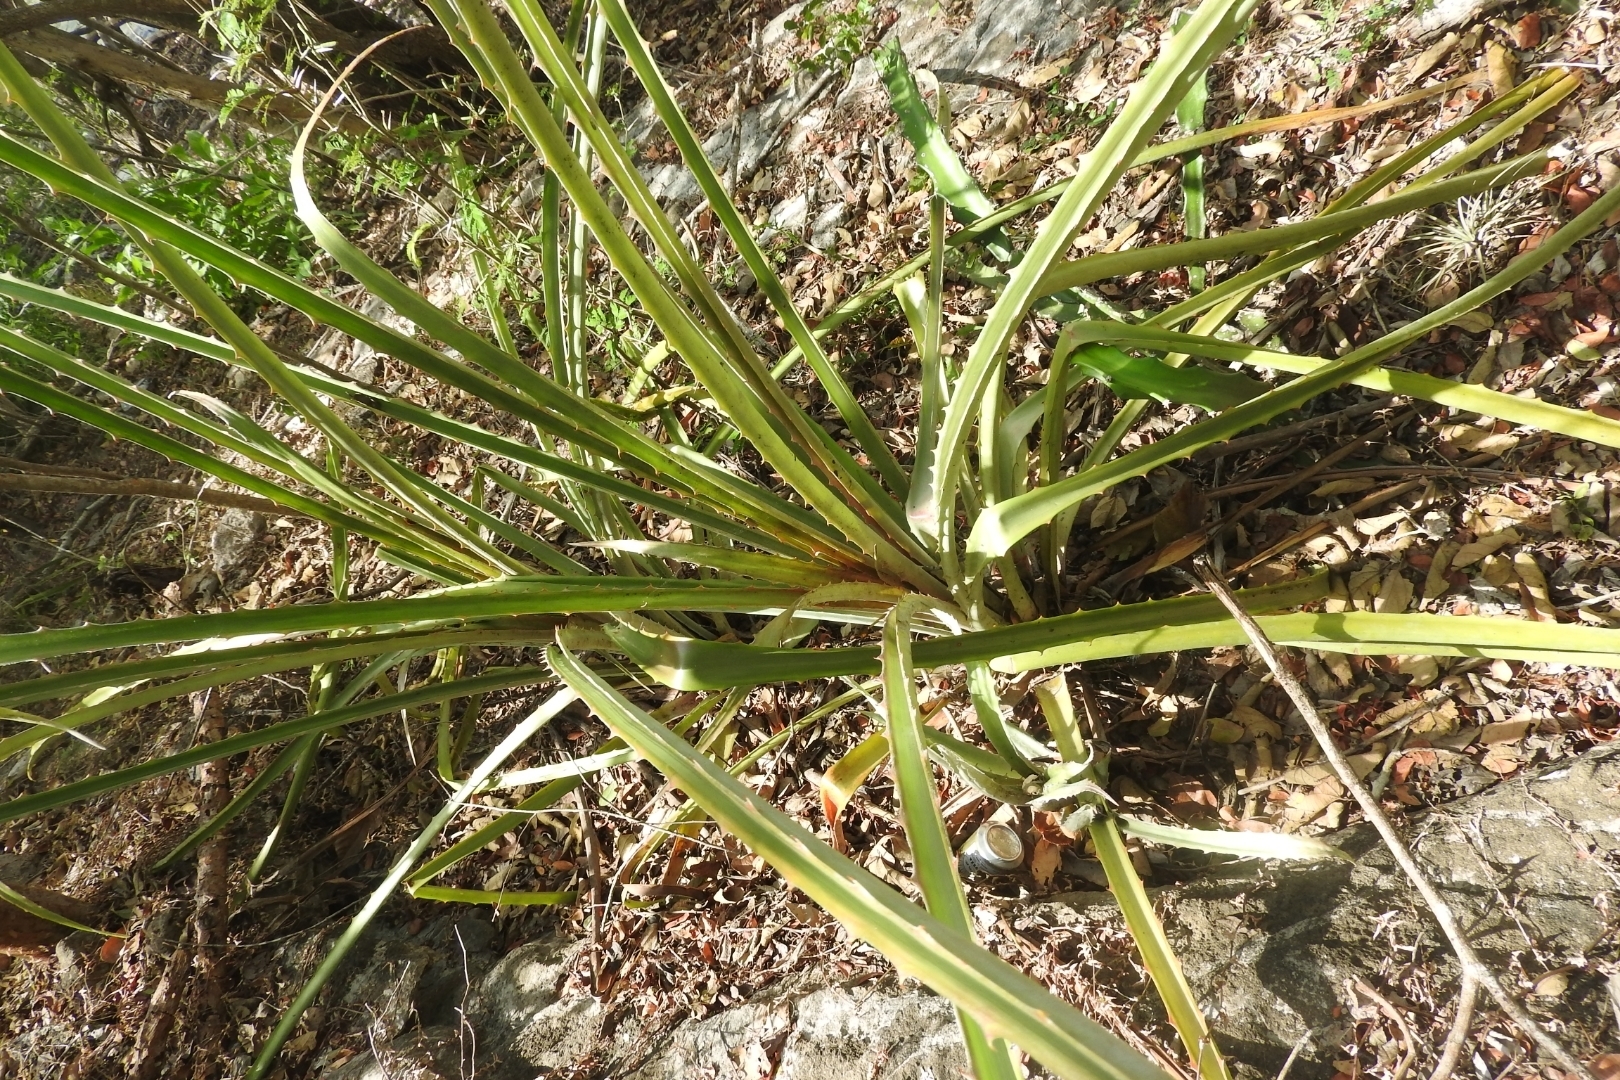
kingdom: Plantae
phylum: Tracheophyta
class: Liliopsida
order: Poales
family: Bromeliaceae
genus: Bromelia
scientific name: Bromelia pinguin
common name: Pinguin
